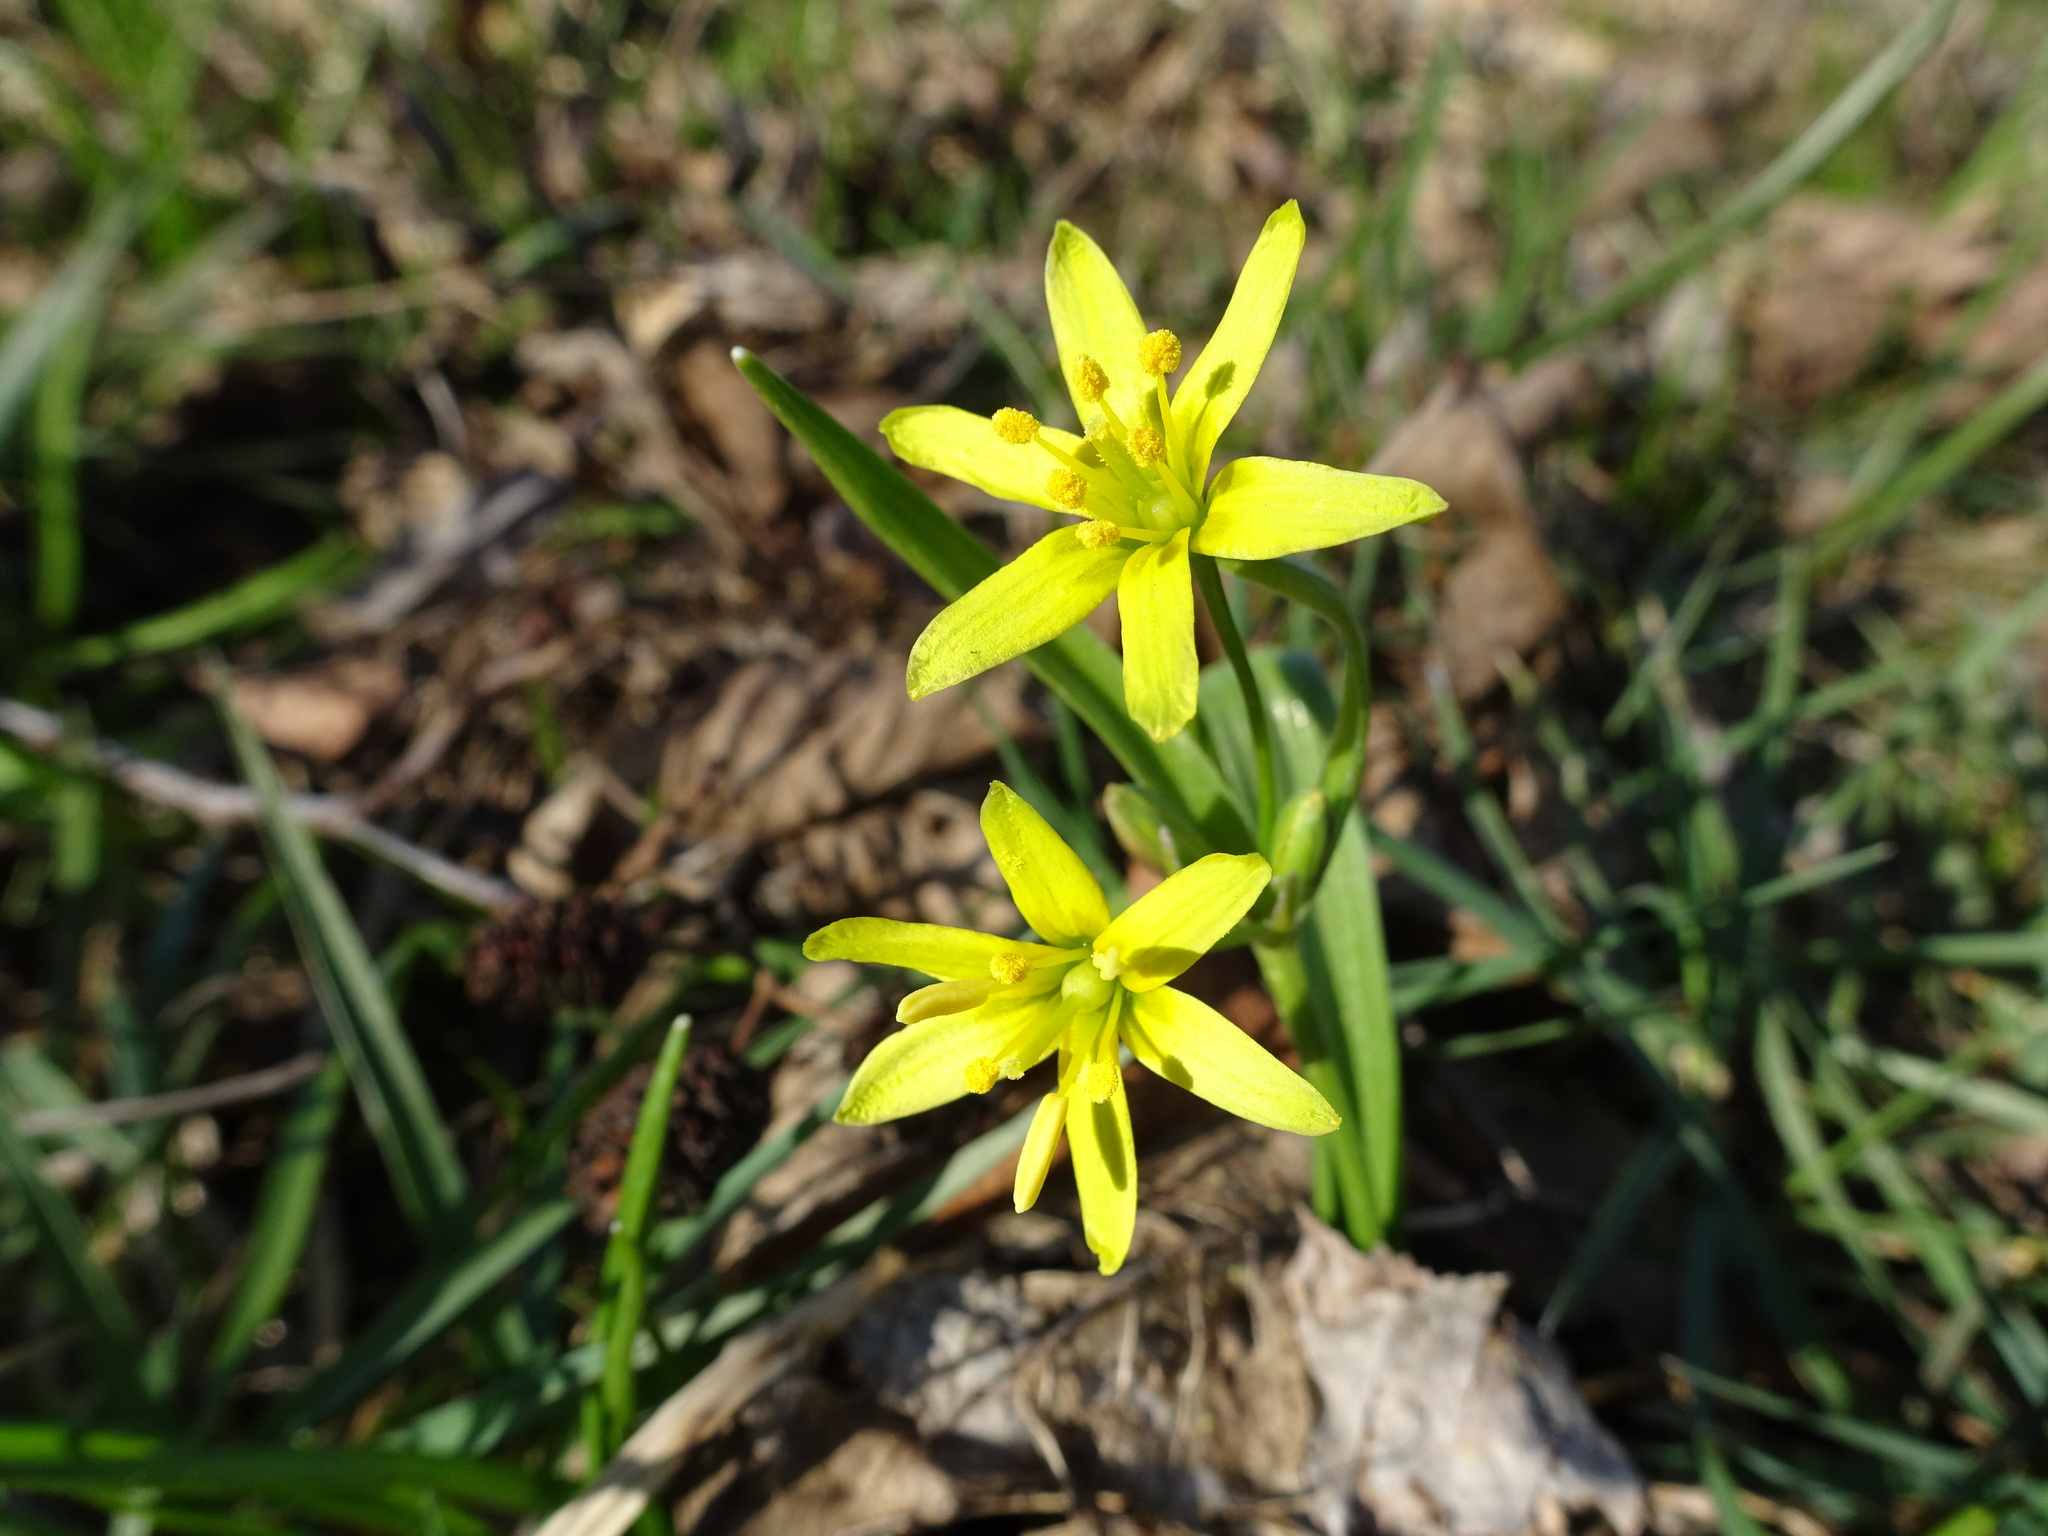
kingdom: Plantae
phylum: Tracheophyta
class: Liliopsida
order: Liliales
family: Liliaceae
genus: Gagea
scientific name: Gagea lutea
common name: Yellow star-of-bethlehem
